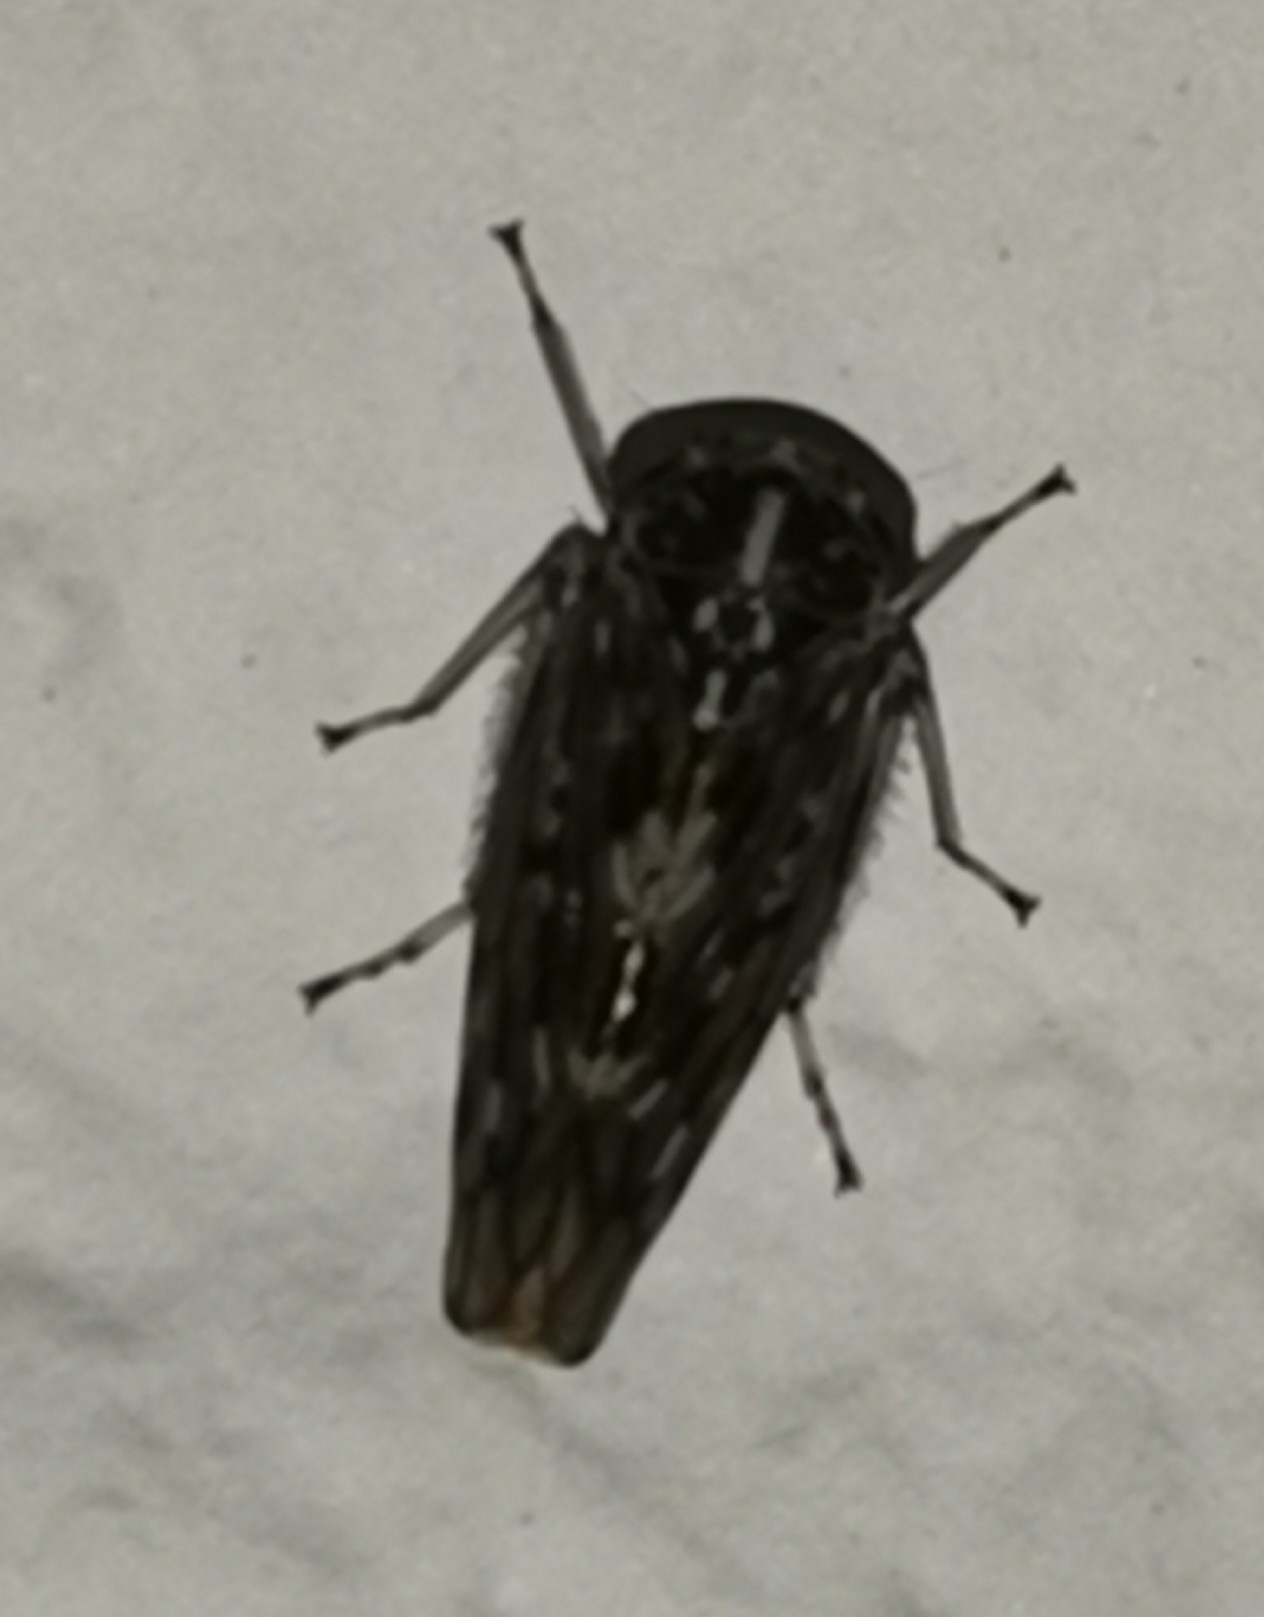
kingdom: Animalia
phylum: Arthropoda
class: Insecta
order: Hemiptera
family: Cicadellidae
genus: Idiocerus
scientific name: Idiocerus herrichii
